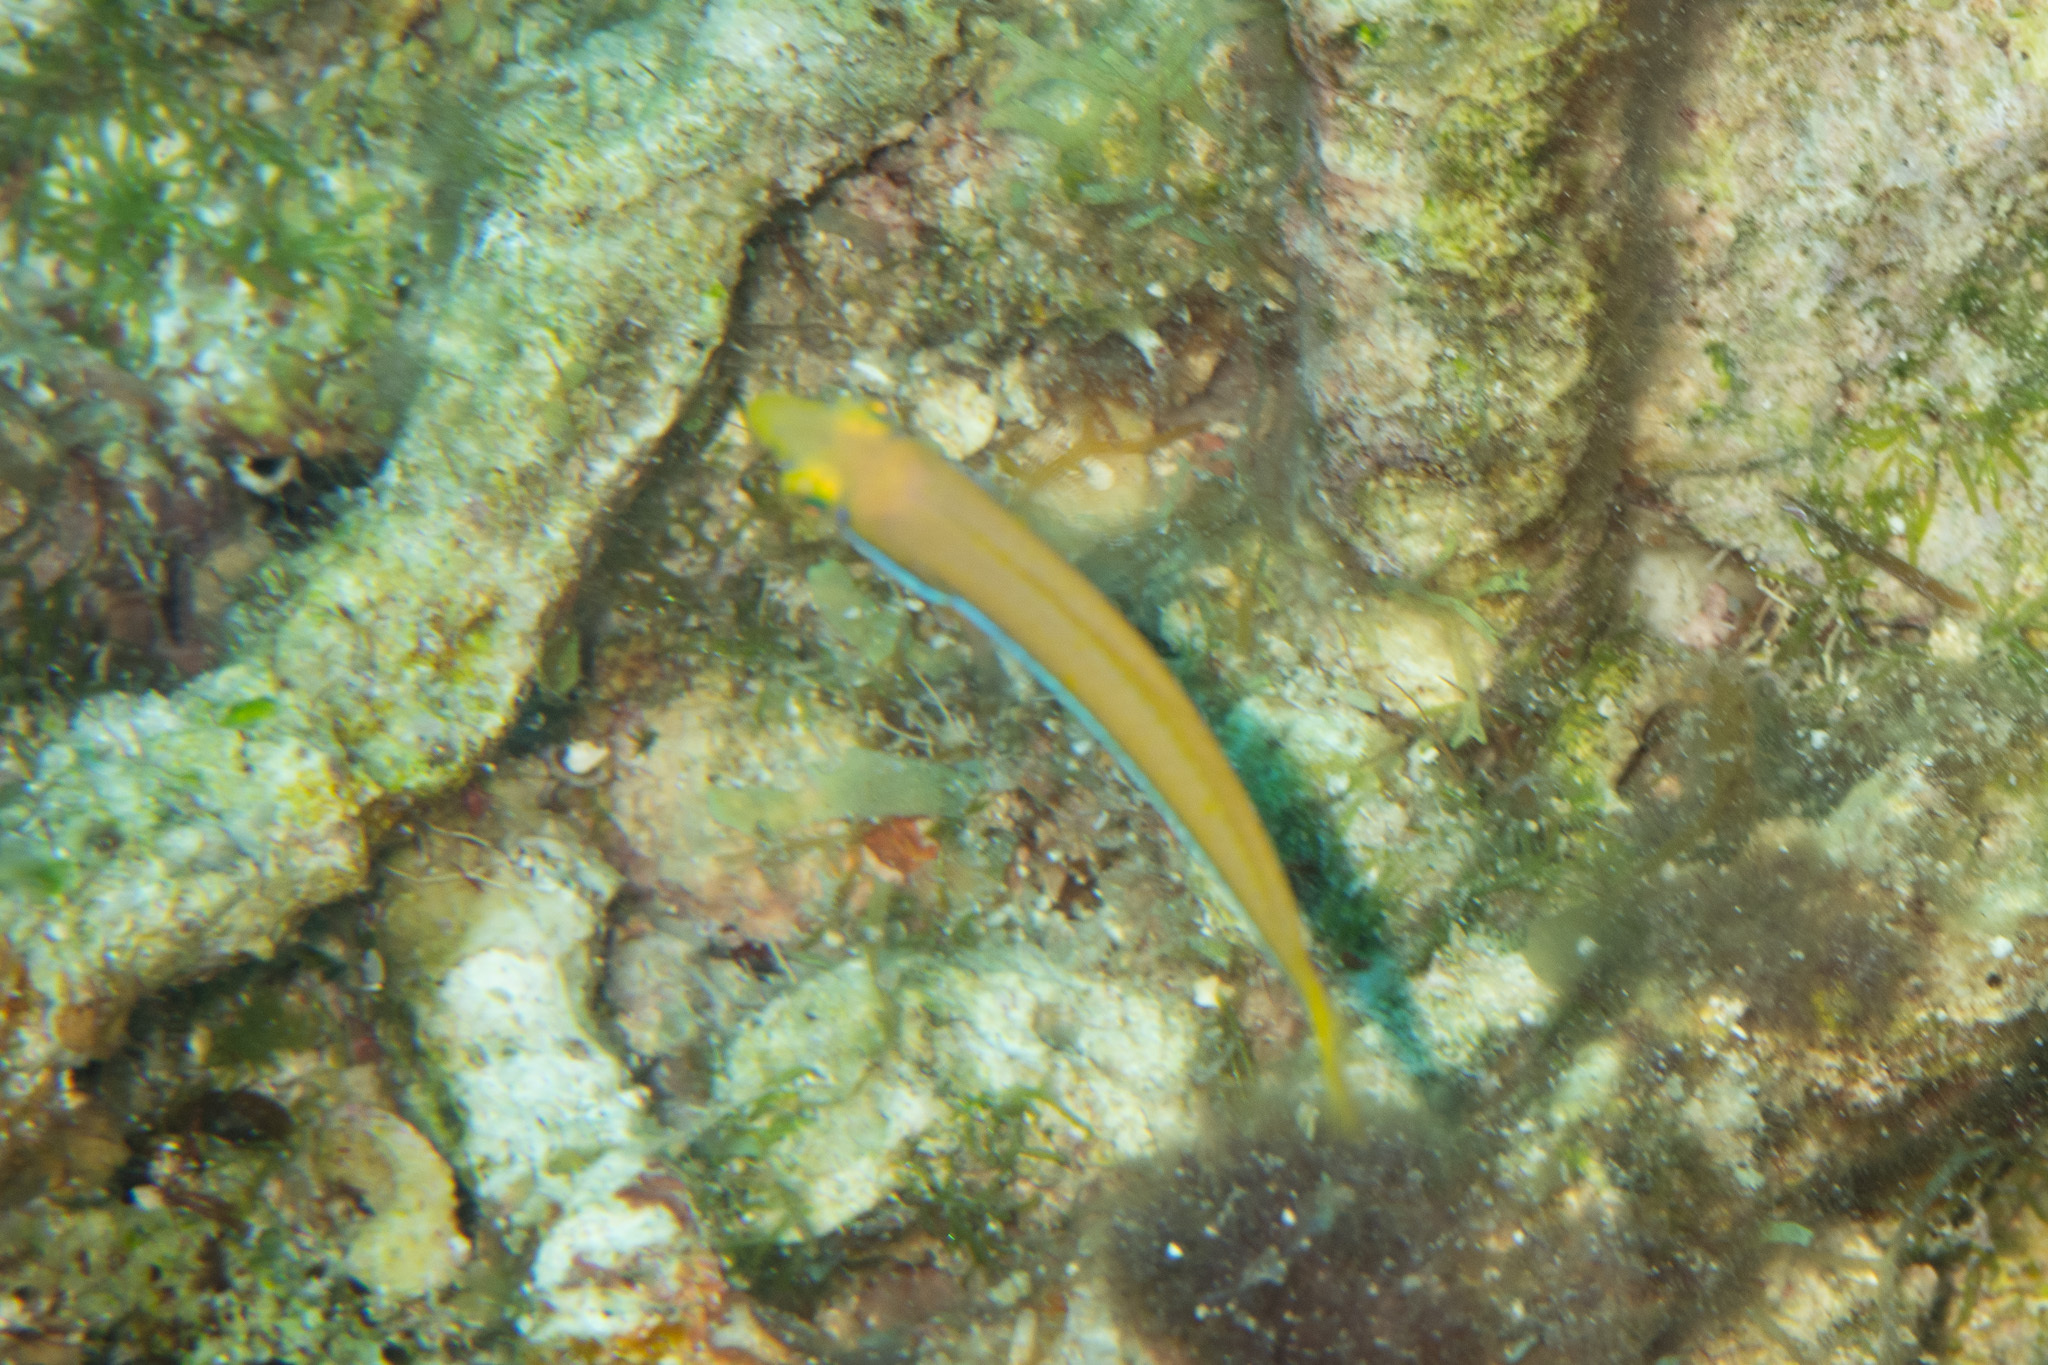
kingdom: Animalia
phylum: Chordata
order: Perciformes
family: Labridae
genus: Halichoeres
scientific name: Halichoeres garnoti
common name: Yellowhead wrasse
